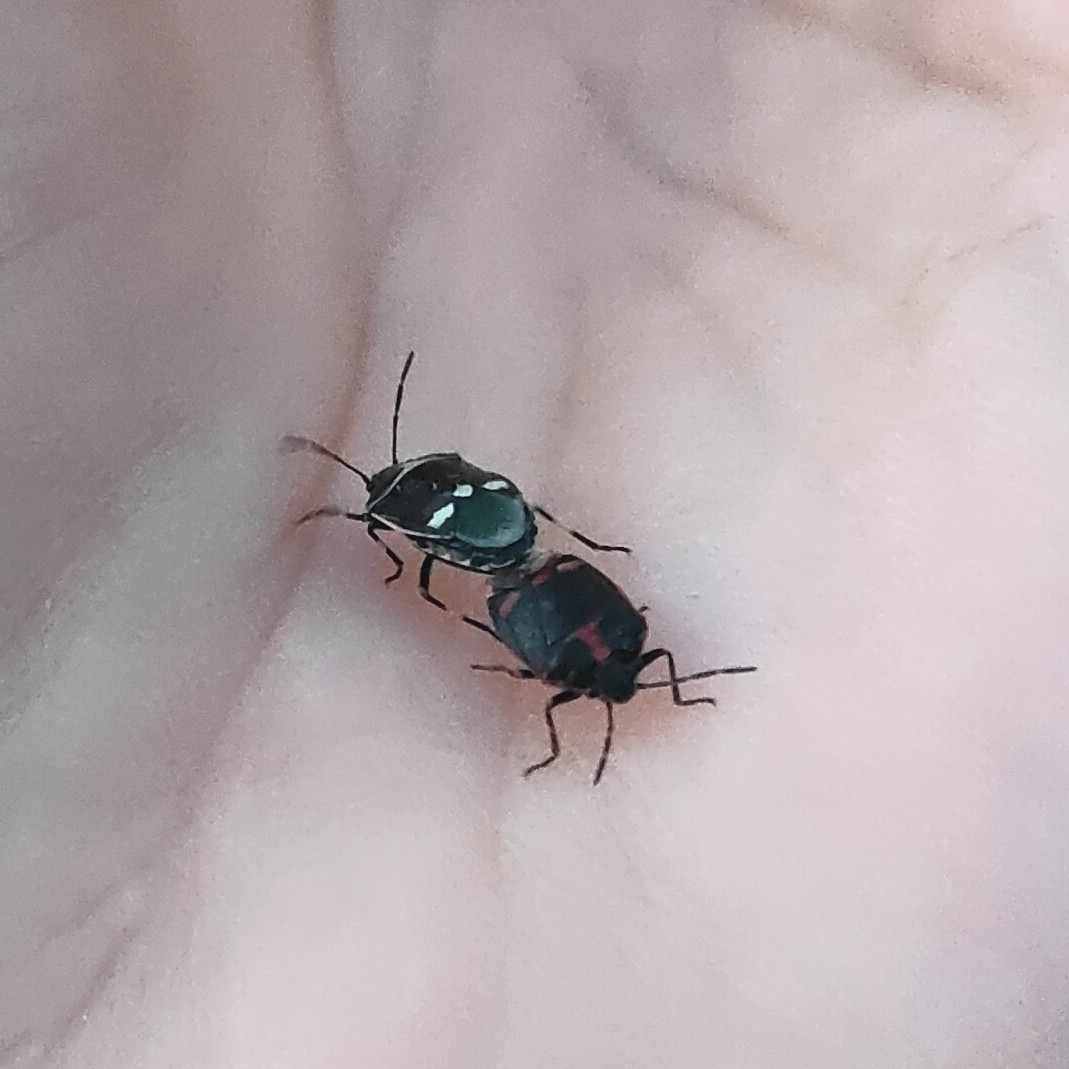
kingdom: Animalia
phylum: Arthropoda
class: Insecta
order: Hemiptera
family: Pentatomidae
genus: Eurydema
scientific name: Eurydema oleracea
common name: Cabbage bug
